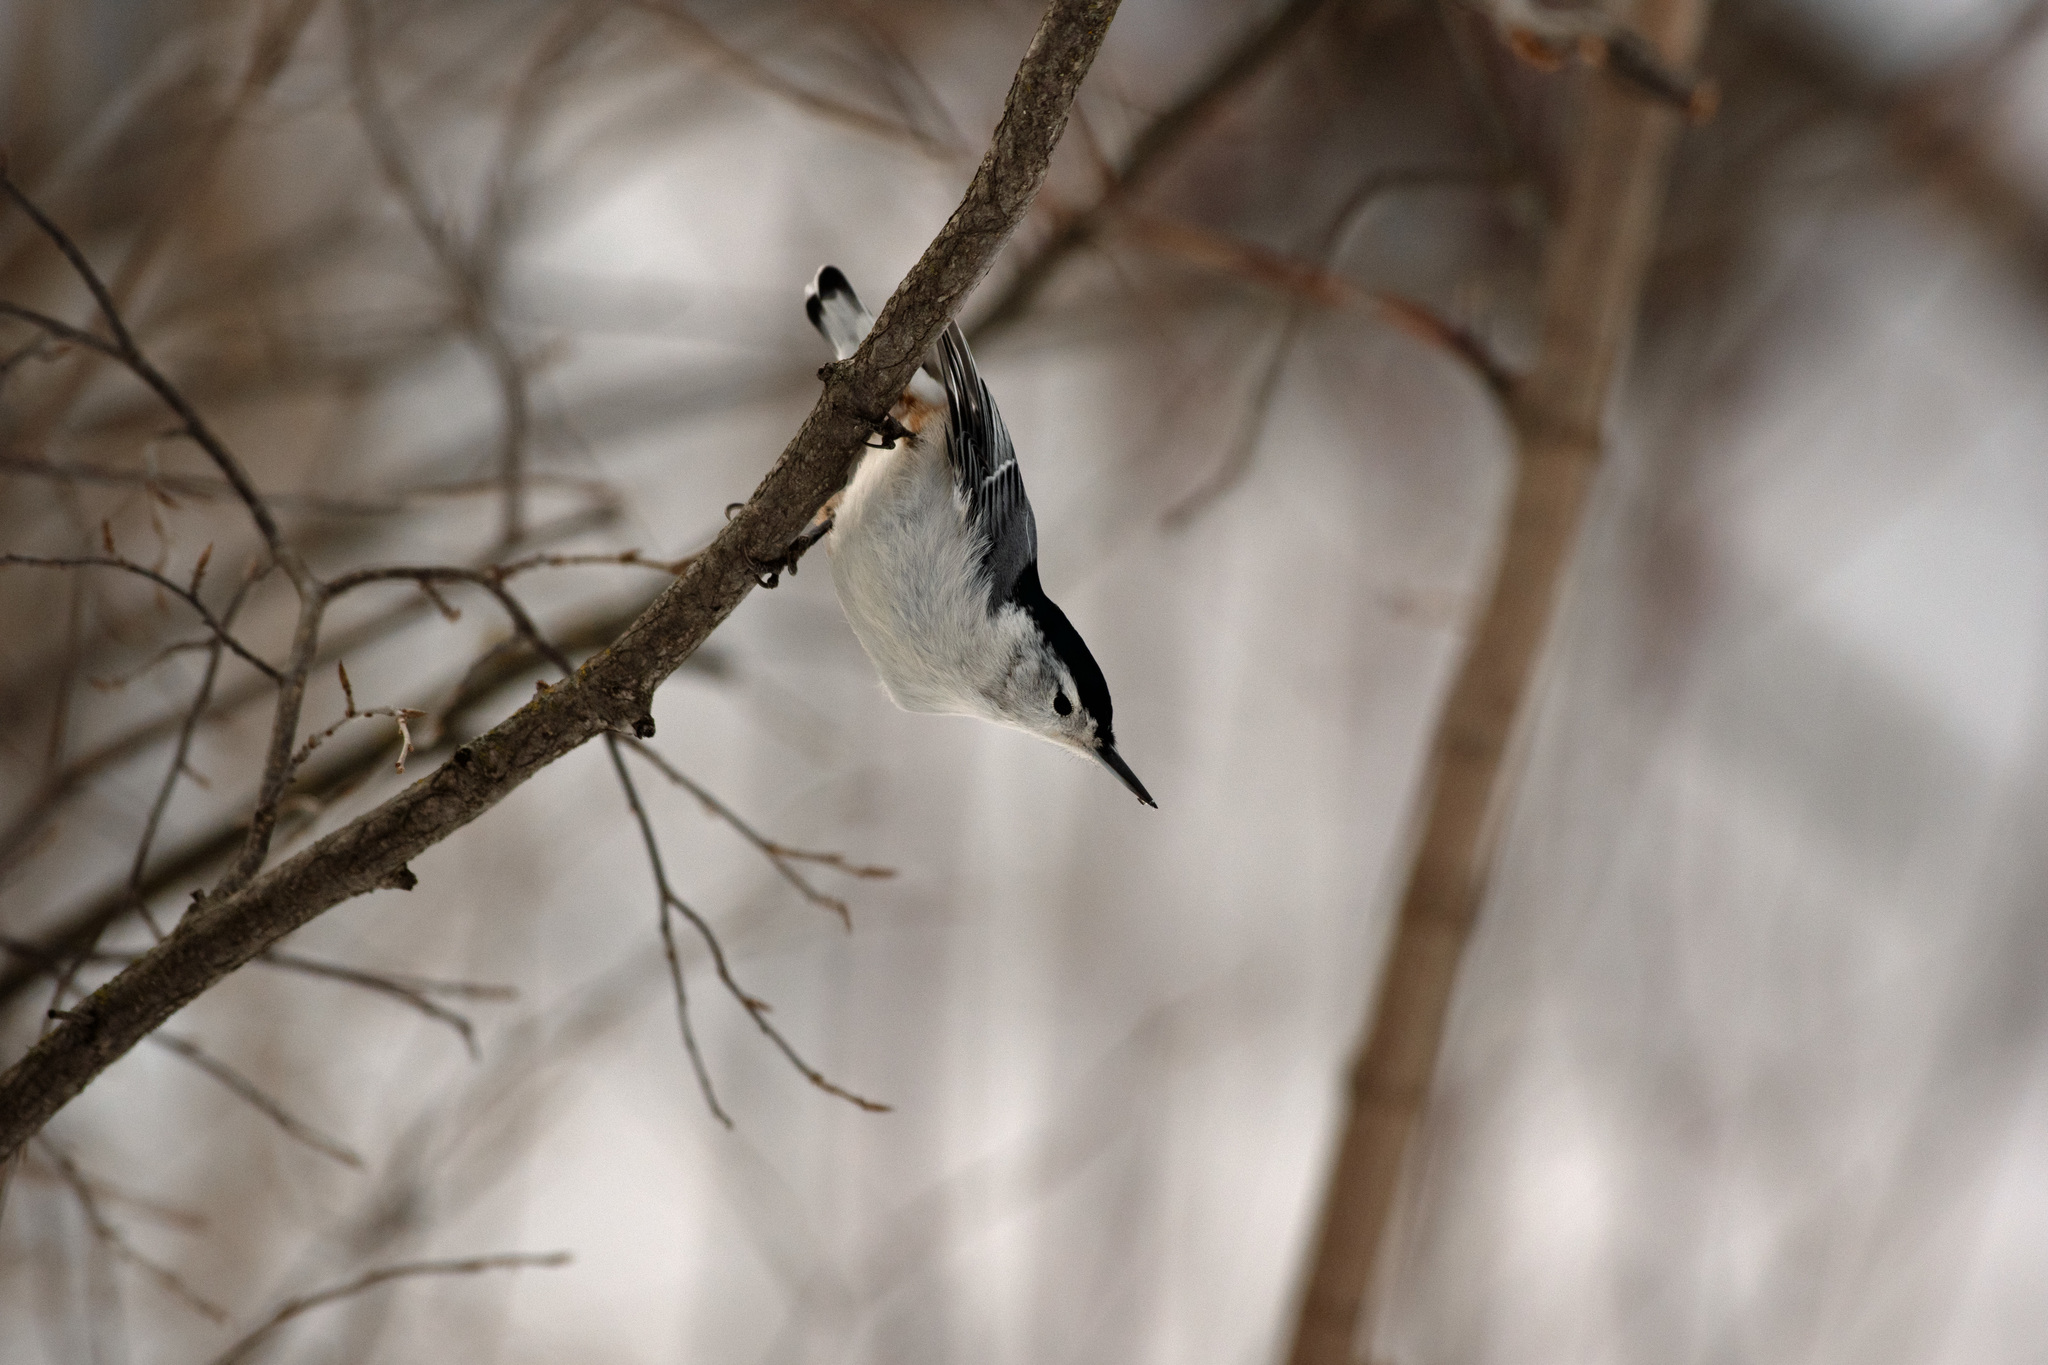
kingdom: Animalia
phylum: Chordata
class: Aves
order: Passeriformes
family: Sittidae
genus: Sitta
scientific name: Sitta carolinensis
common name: White-breasted nuthatch
